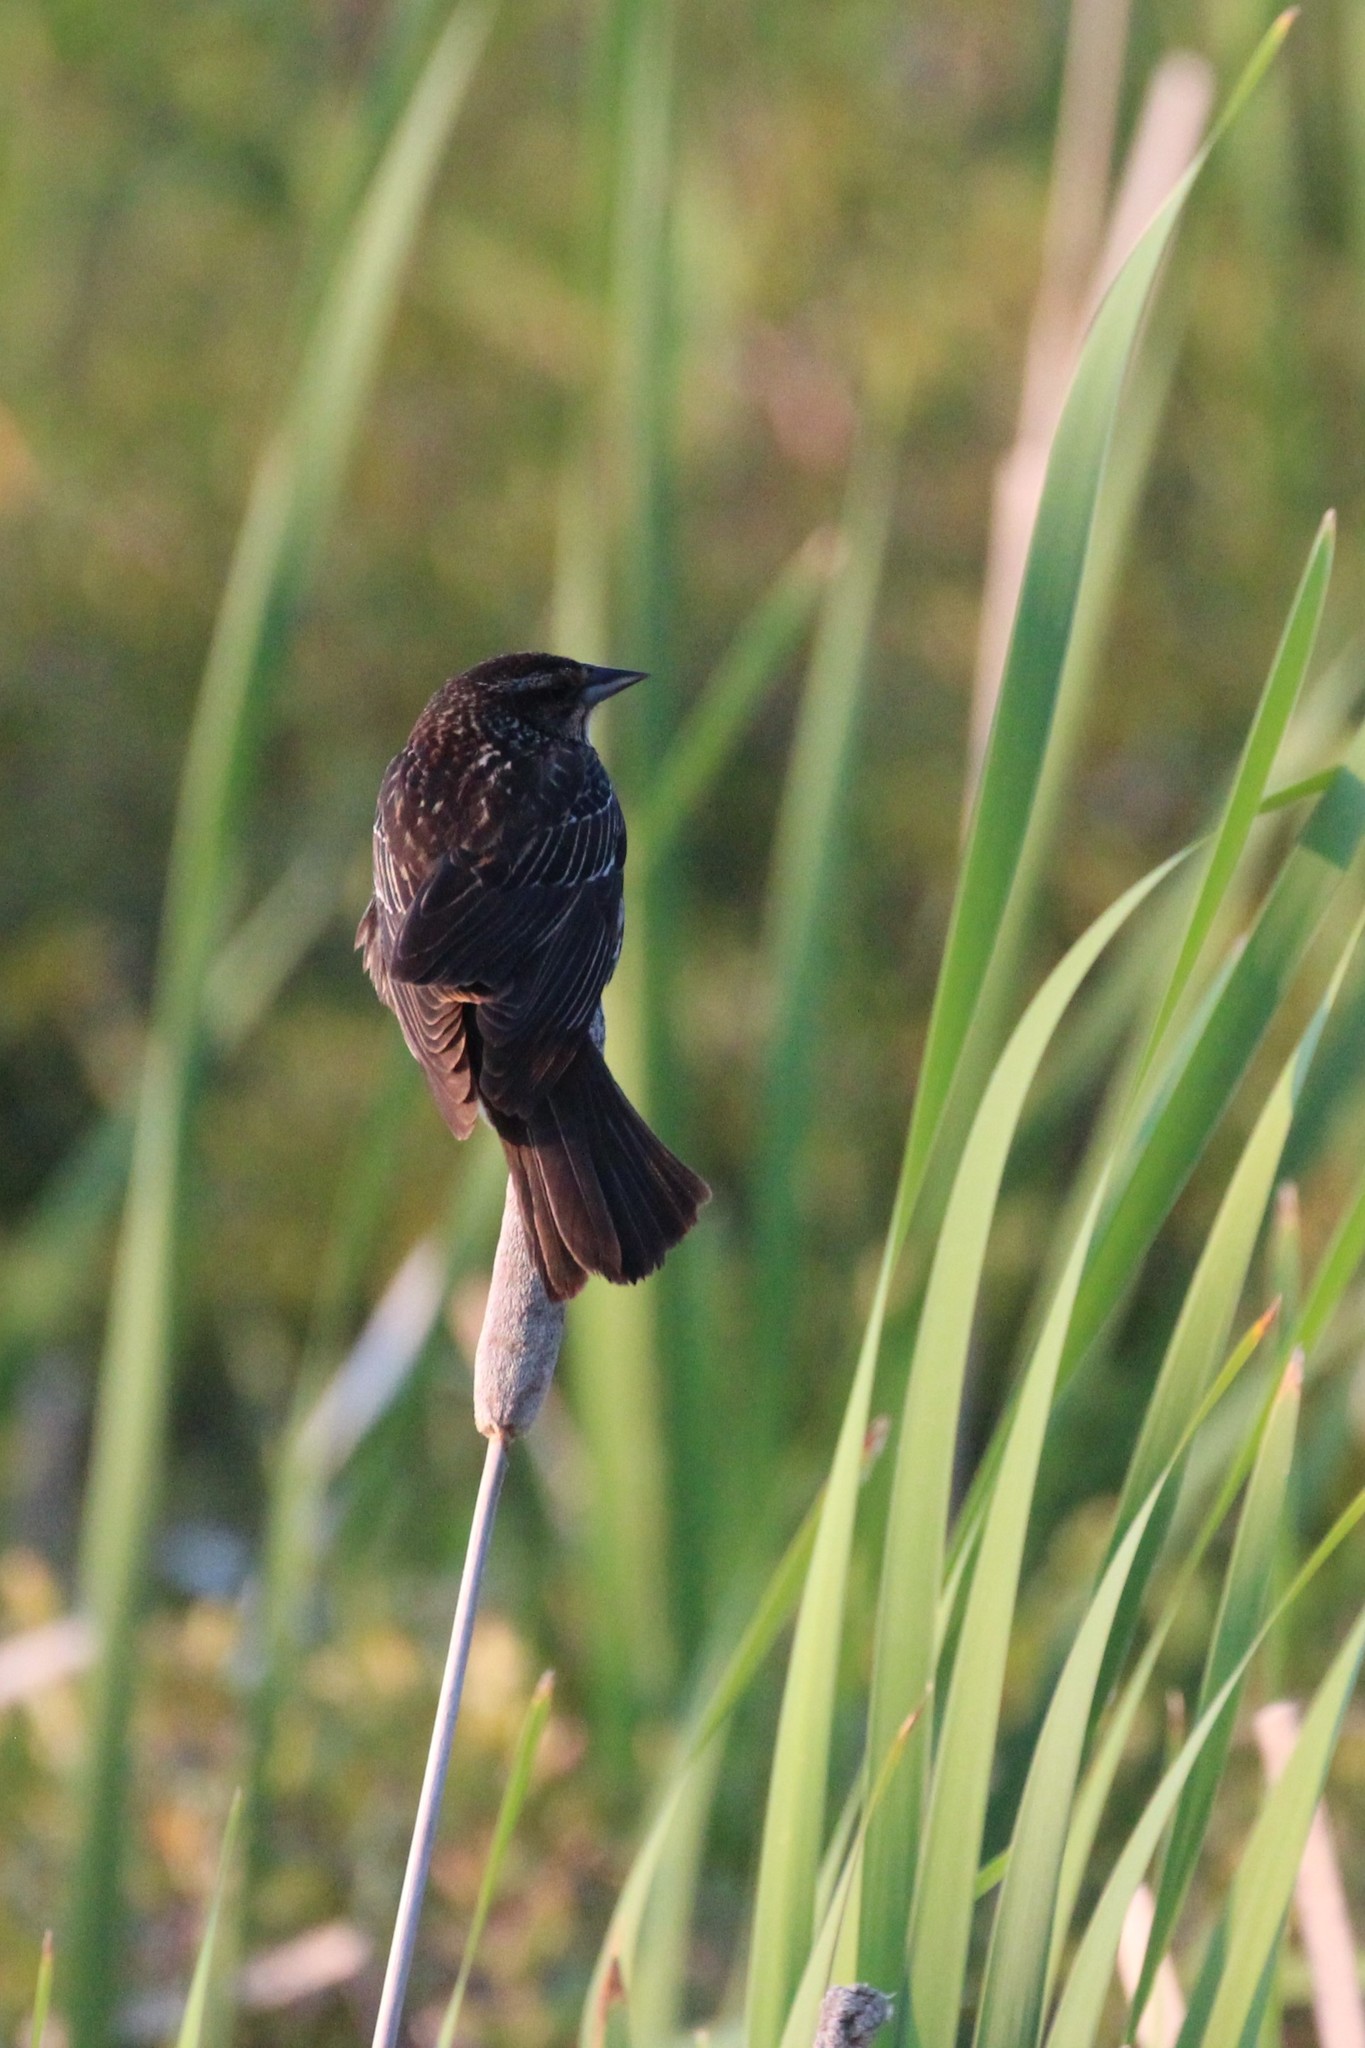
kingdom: Animalia
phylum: Chordata
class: Aves
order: Passeriformes
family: Icteridae
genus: Agelaius
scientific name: Agelaius phoeniceus
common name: Red-winged blackbird
